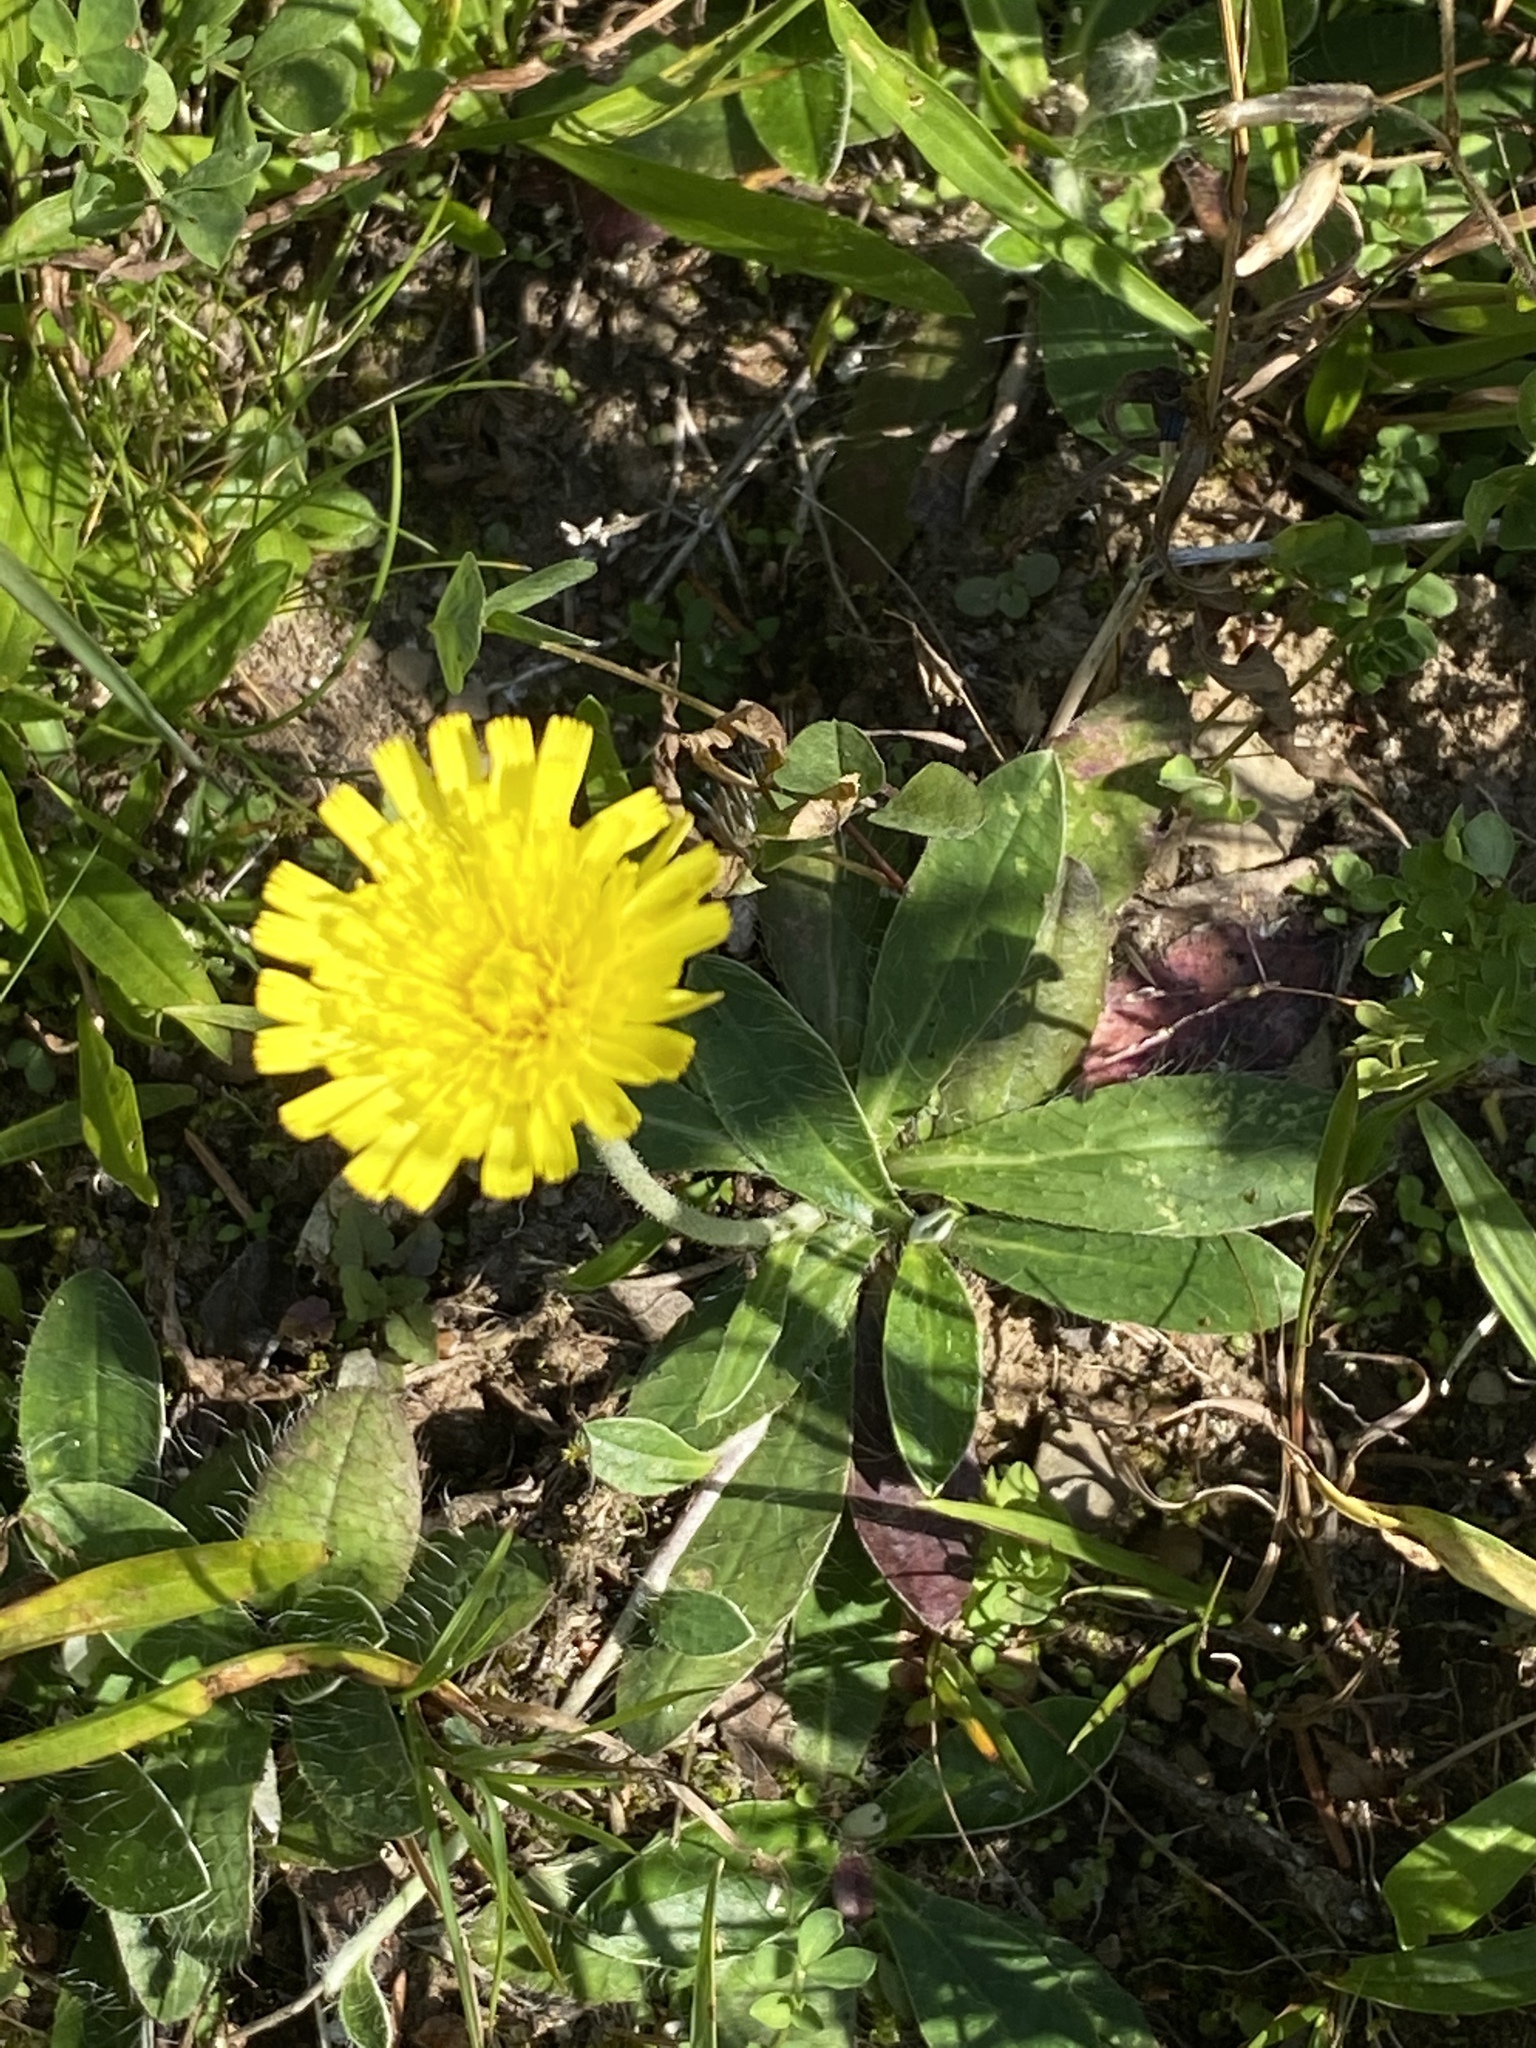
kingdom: Plantae
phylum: Tracheophyta
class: Magnoliopsida
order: Asterales
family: Asteraceae
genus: Pilosella
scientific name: Pilosella officinarum
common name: Mouse-ear hawkweed
